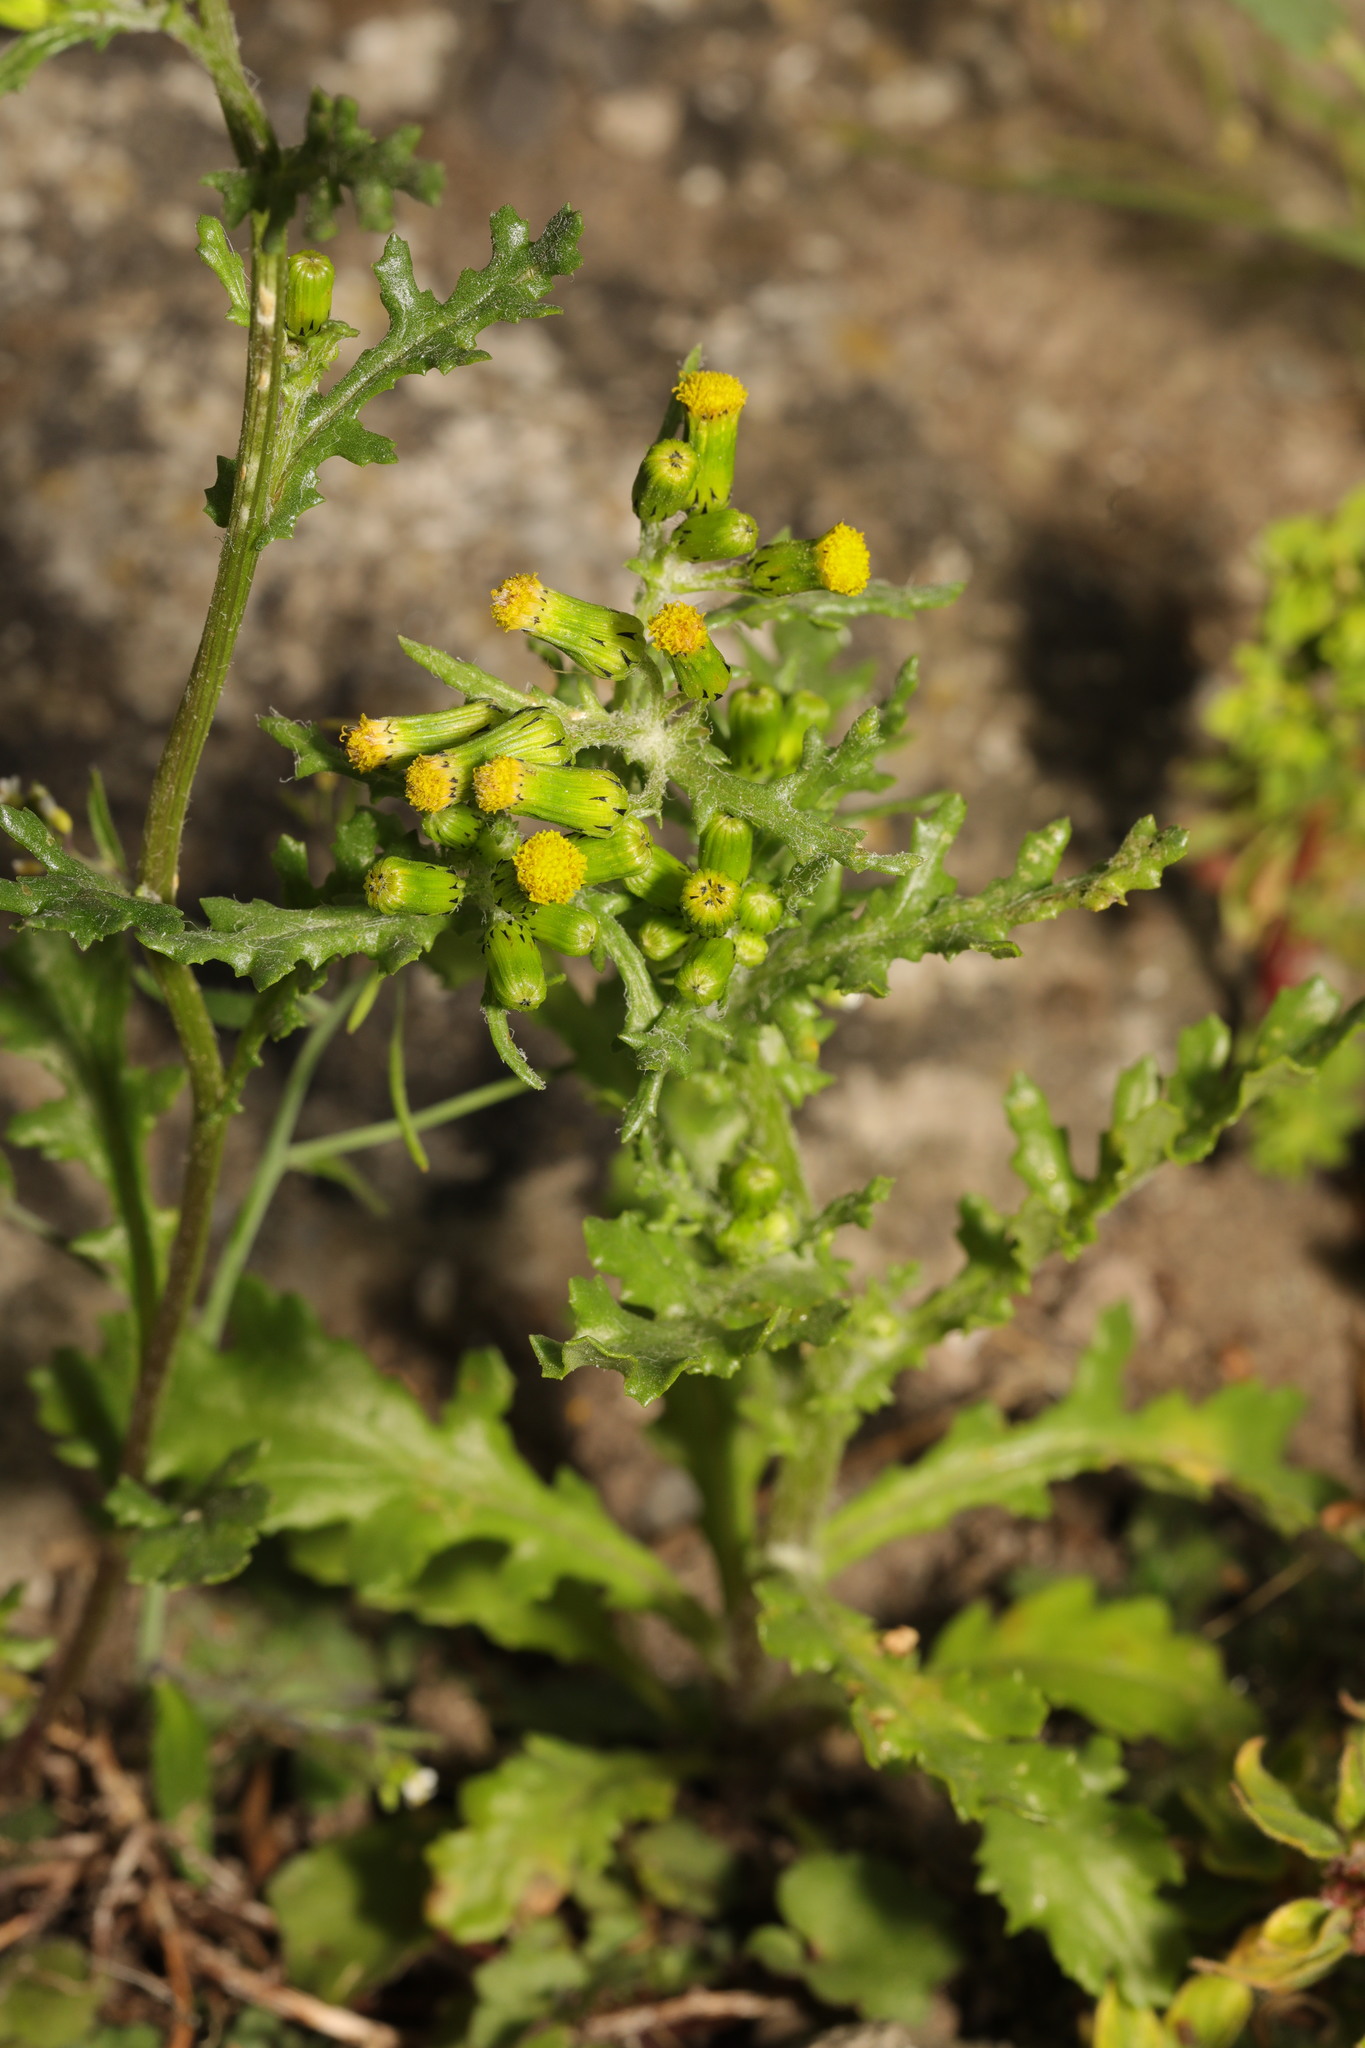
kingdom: Plantae
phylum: Tracheophyta
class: Magnoliopsida
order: Asterales
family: Asteraceae
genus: Senecio
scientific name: Senecio vulgaris
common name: Old-man-in-the-spring
